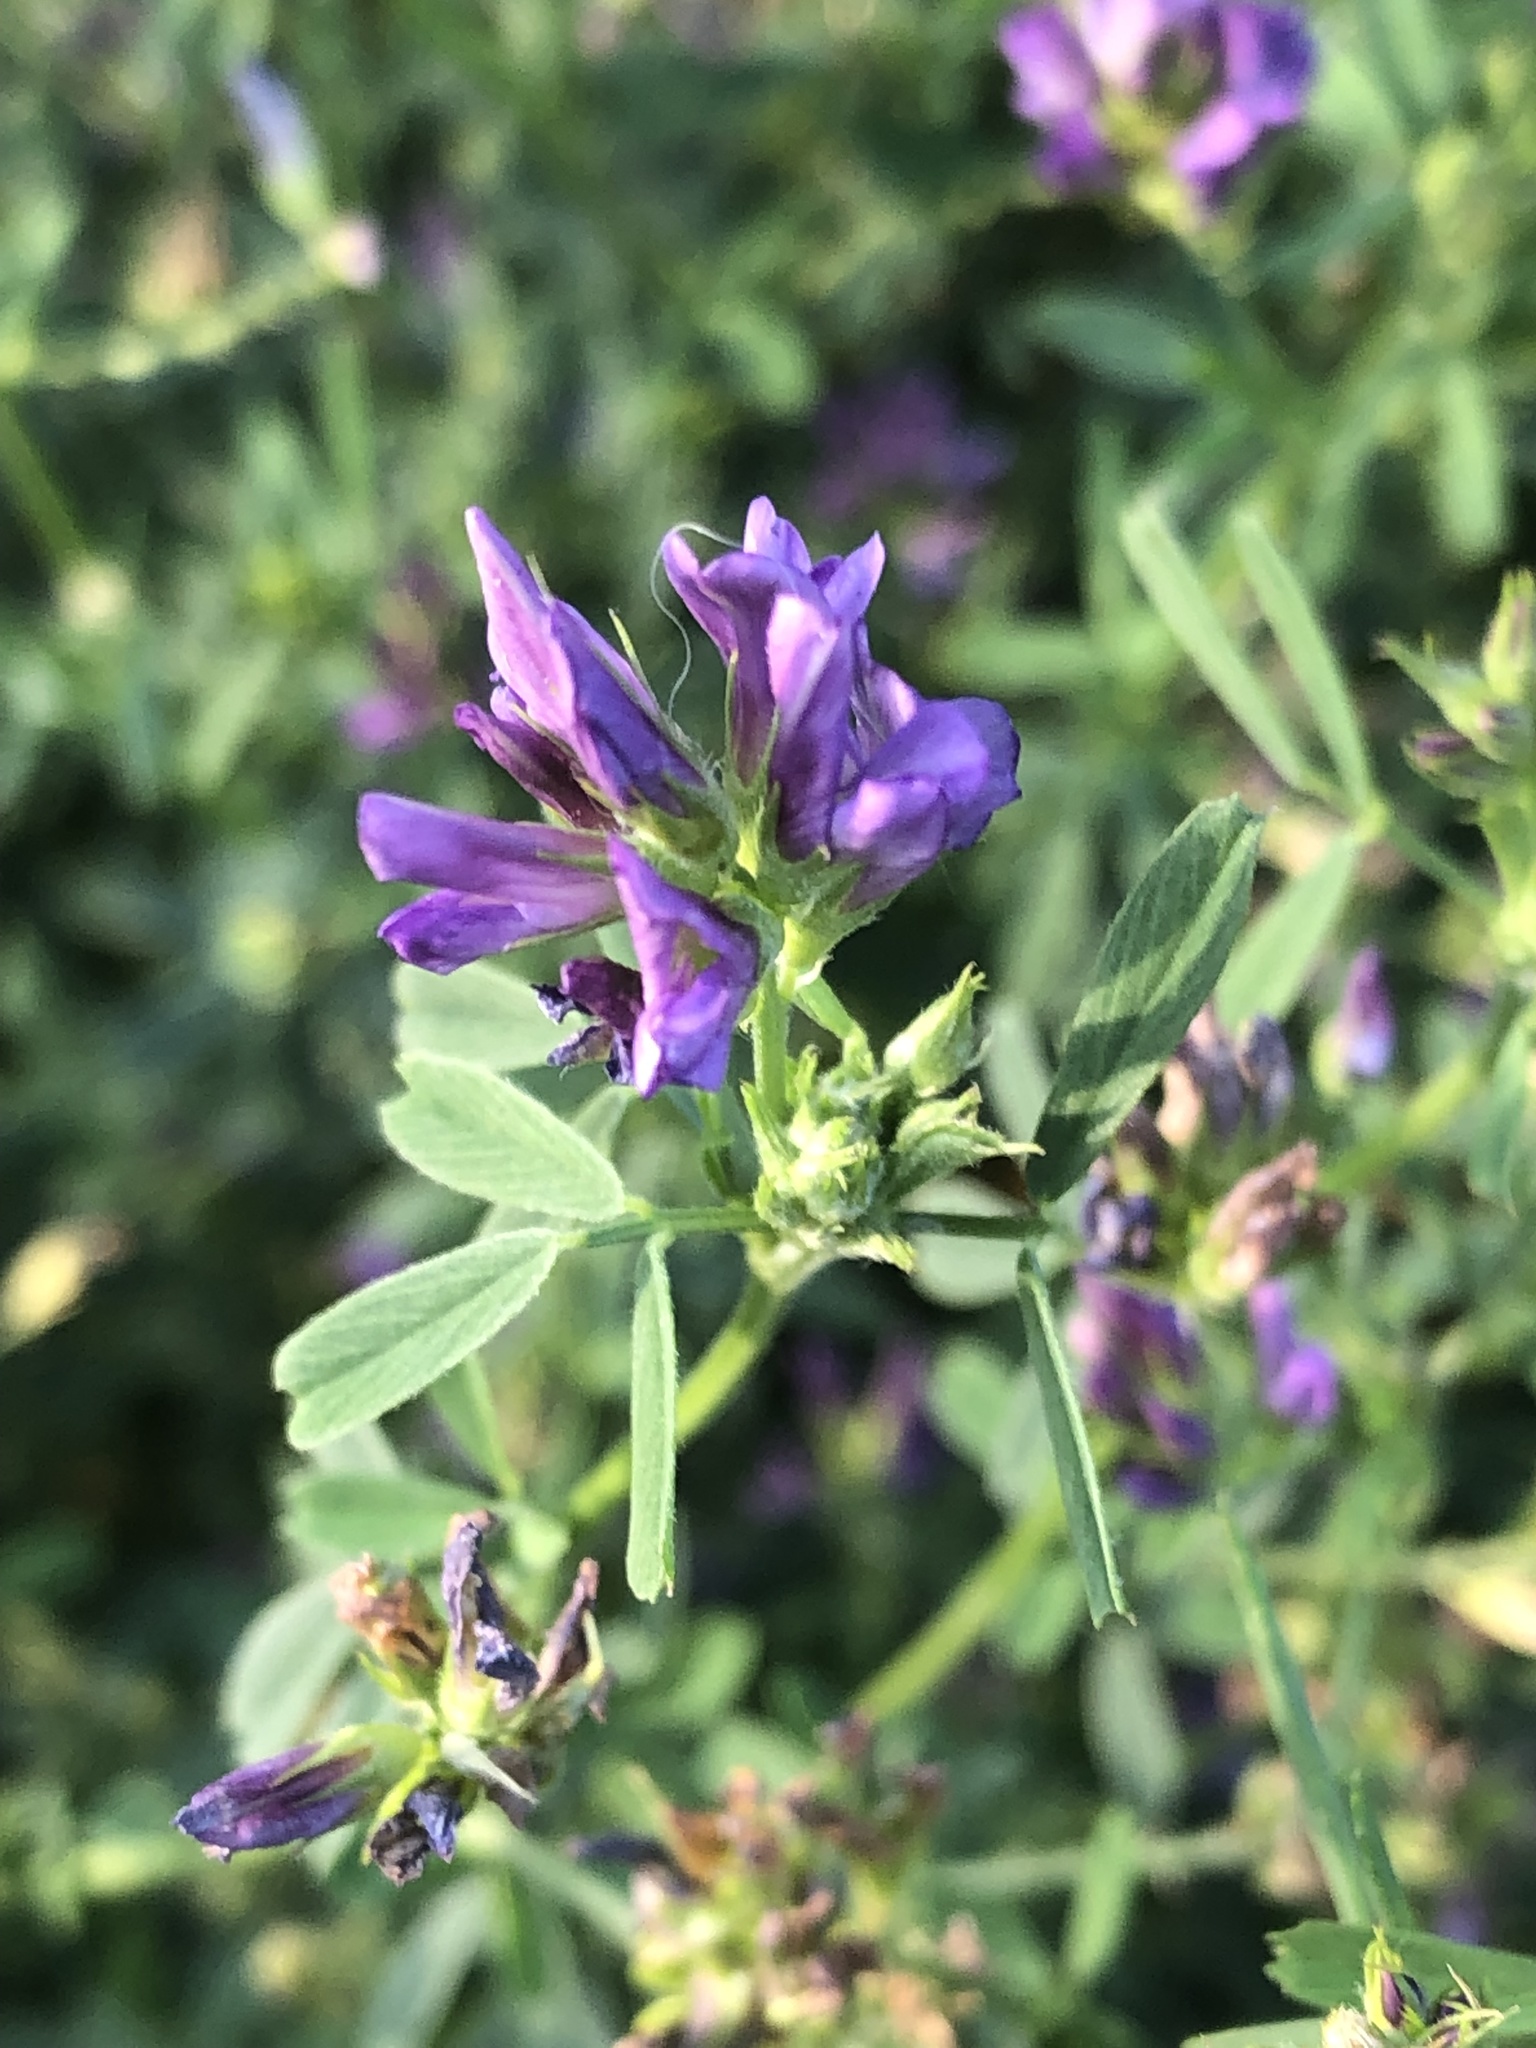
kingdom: Plantae
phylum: Tracheophyta
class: Magnoliopsida
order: Fabales
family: Fabaceae
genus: Medicago
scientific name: Medicago sativa
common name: Alfalfa
